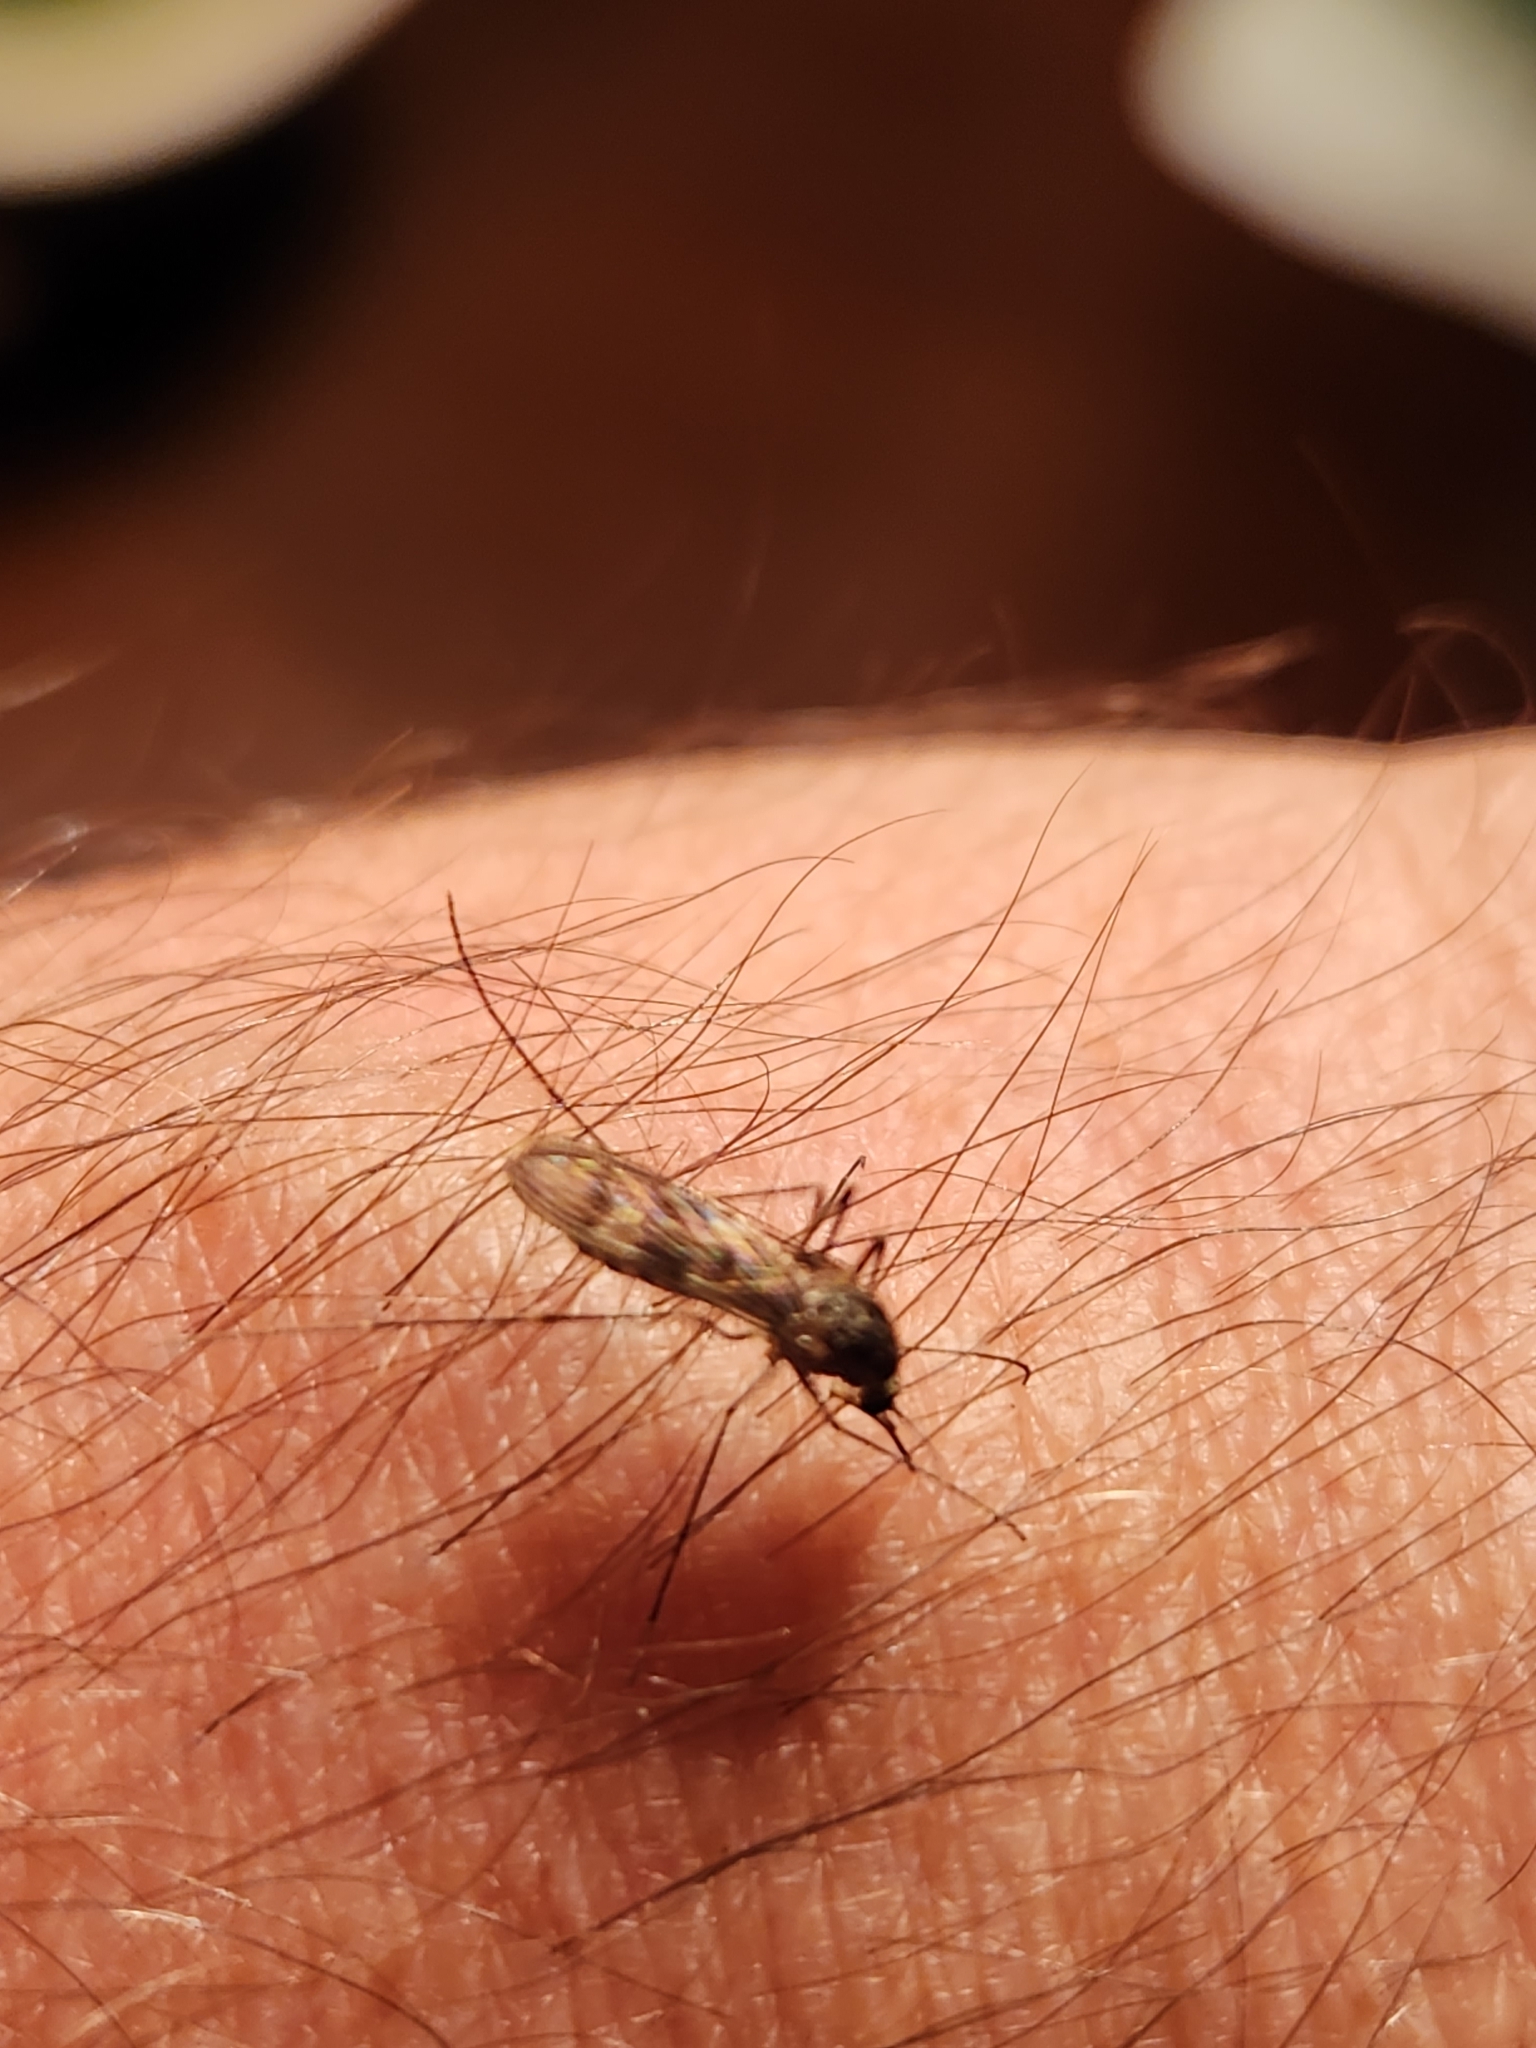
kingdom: Animalia
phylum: Arthropoda
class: Insecta
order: Diptera
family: Culicidae
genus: Culiseta
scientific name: Culiseta incidens
